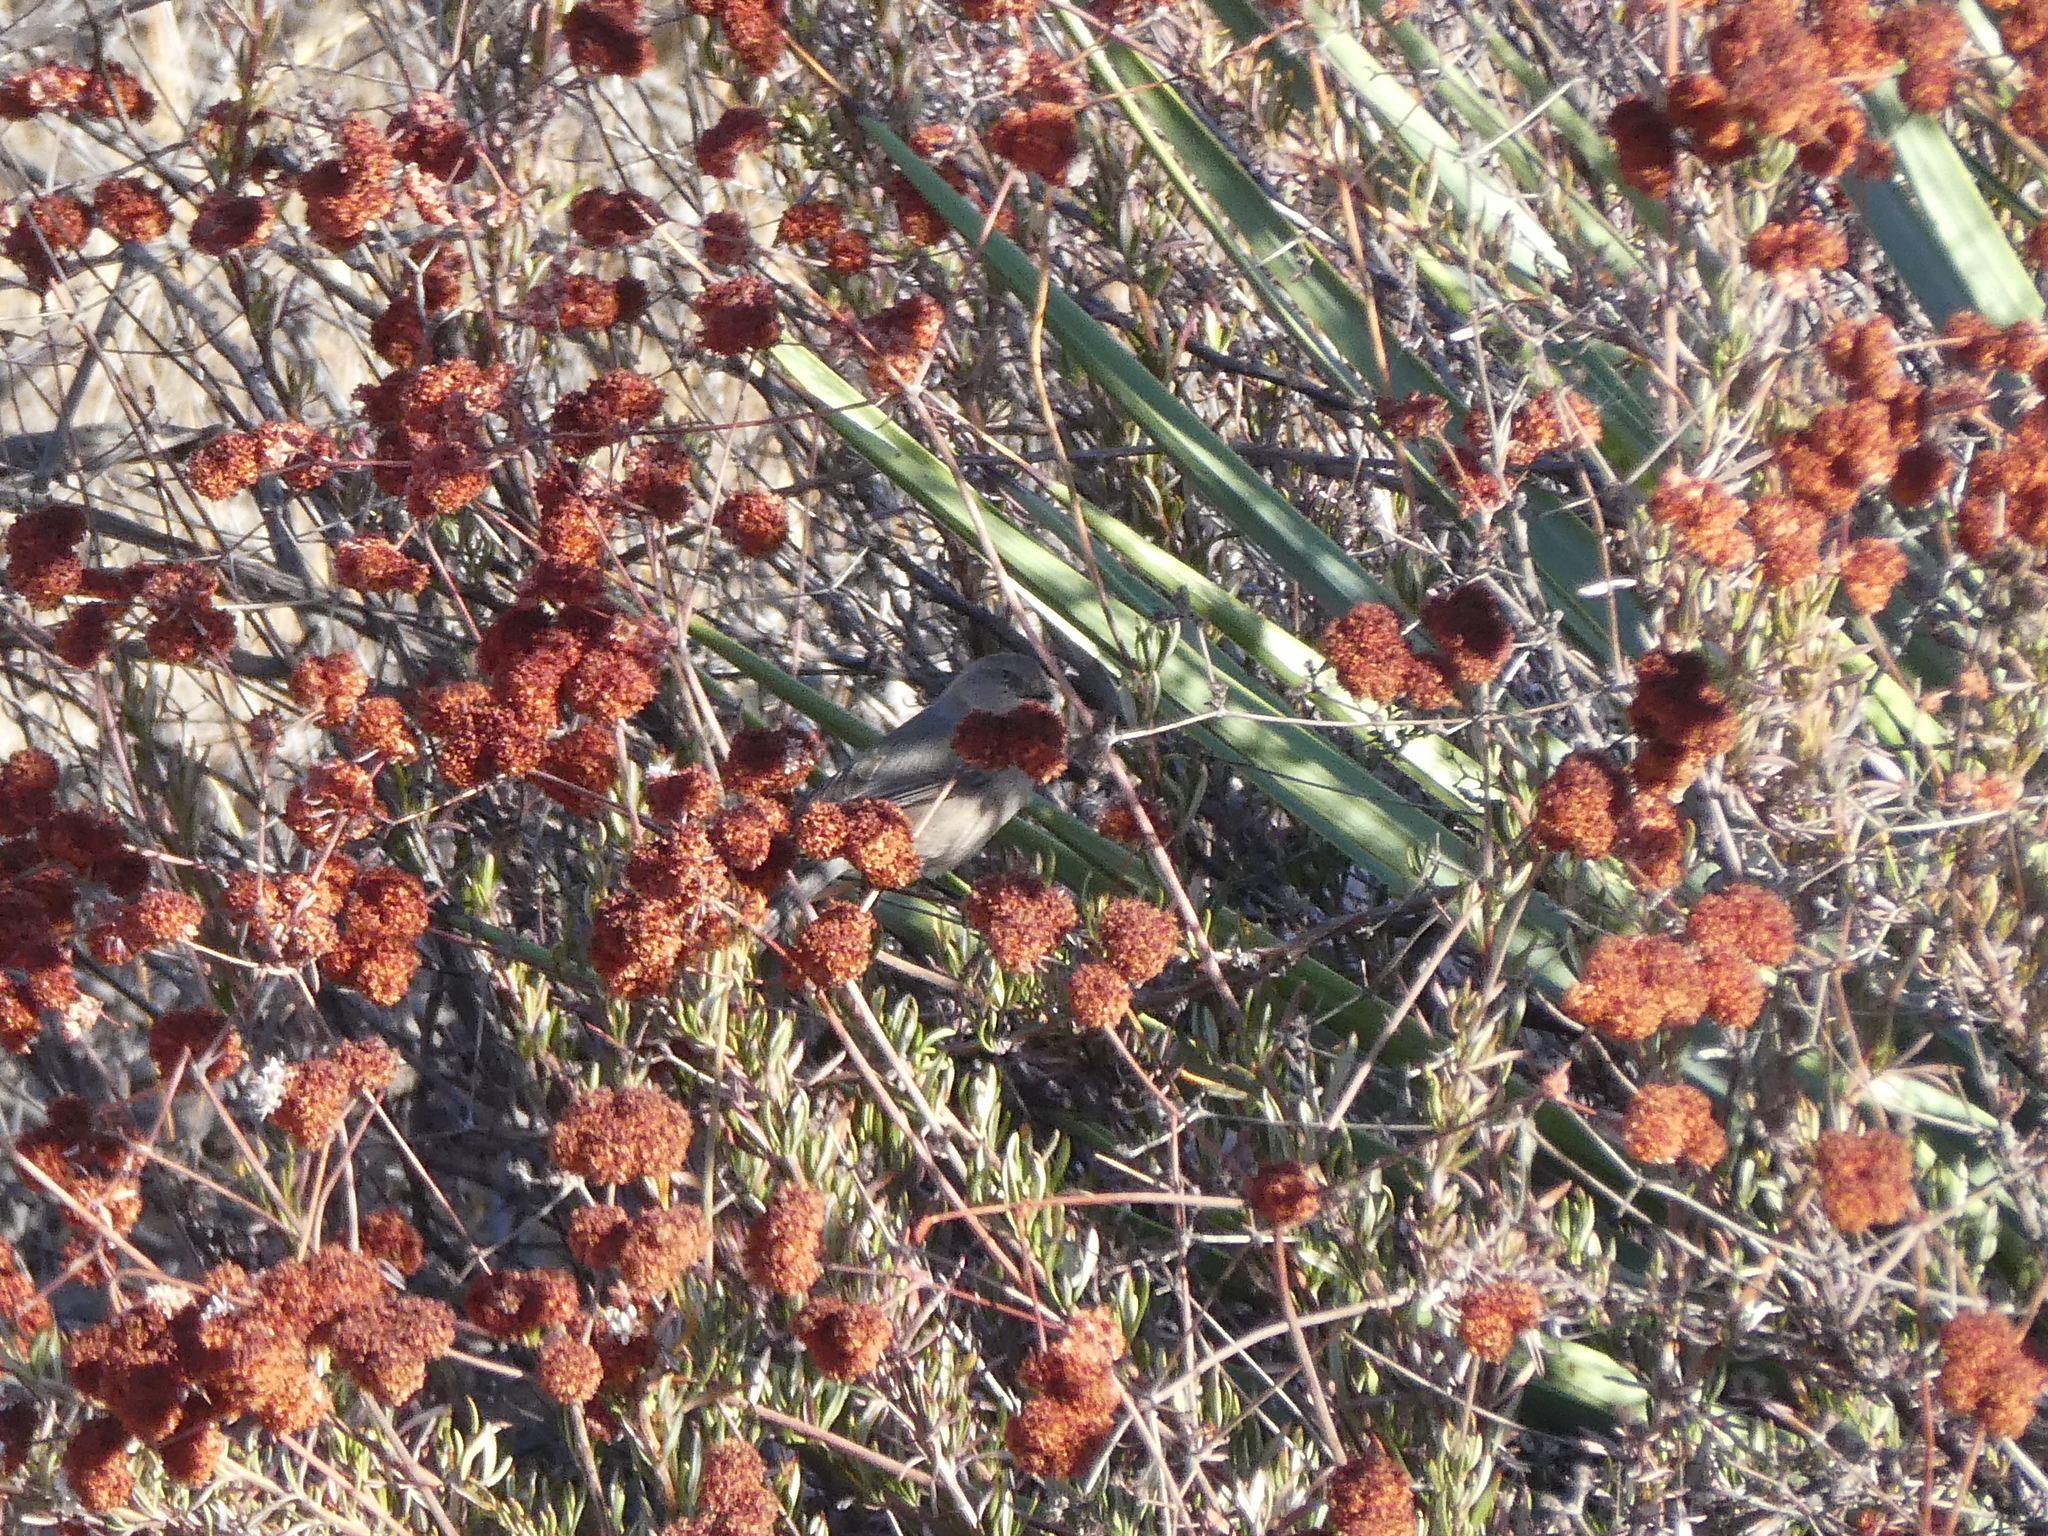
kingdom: Animalia
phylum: Chordata
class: Aves
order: Passeriformes
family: Aegithalidae
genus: Psaltriparus
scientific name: Psaltriparus minimus
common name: American bushtit
